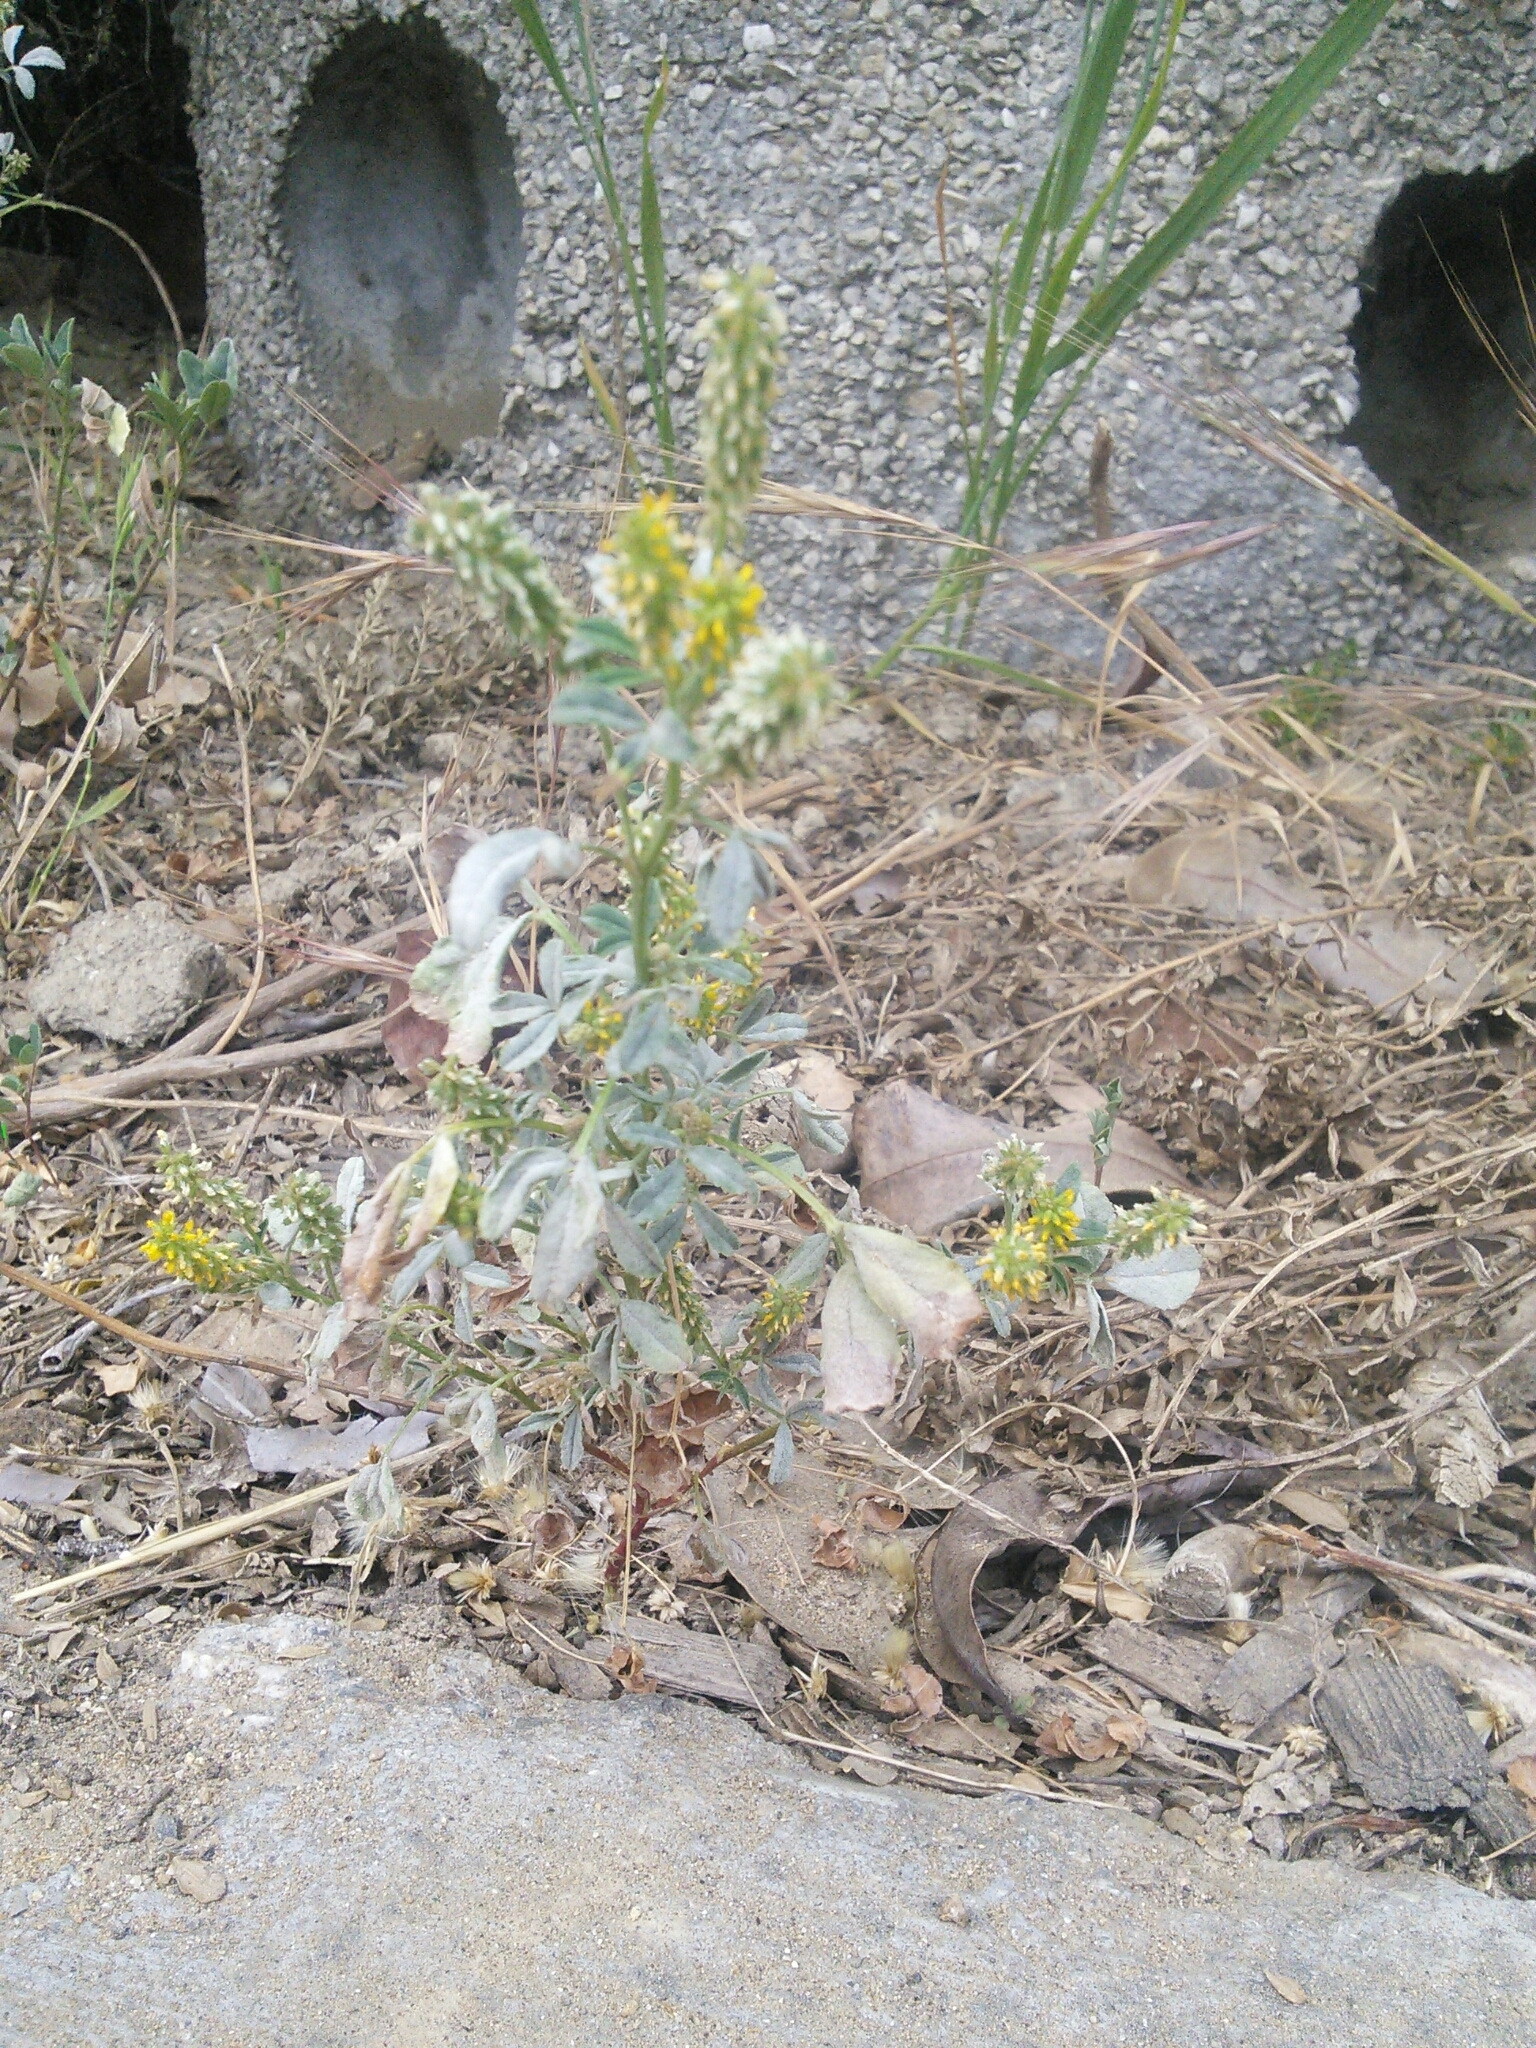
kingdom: Plantae
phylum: Tracheophyta
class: Magnoliopsida
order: Fabales
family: Fabaceae
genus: Melilotus
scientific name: Melilotus indicus
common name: Small melilot
